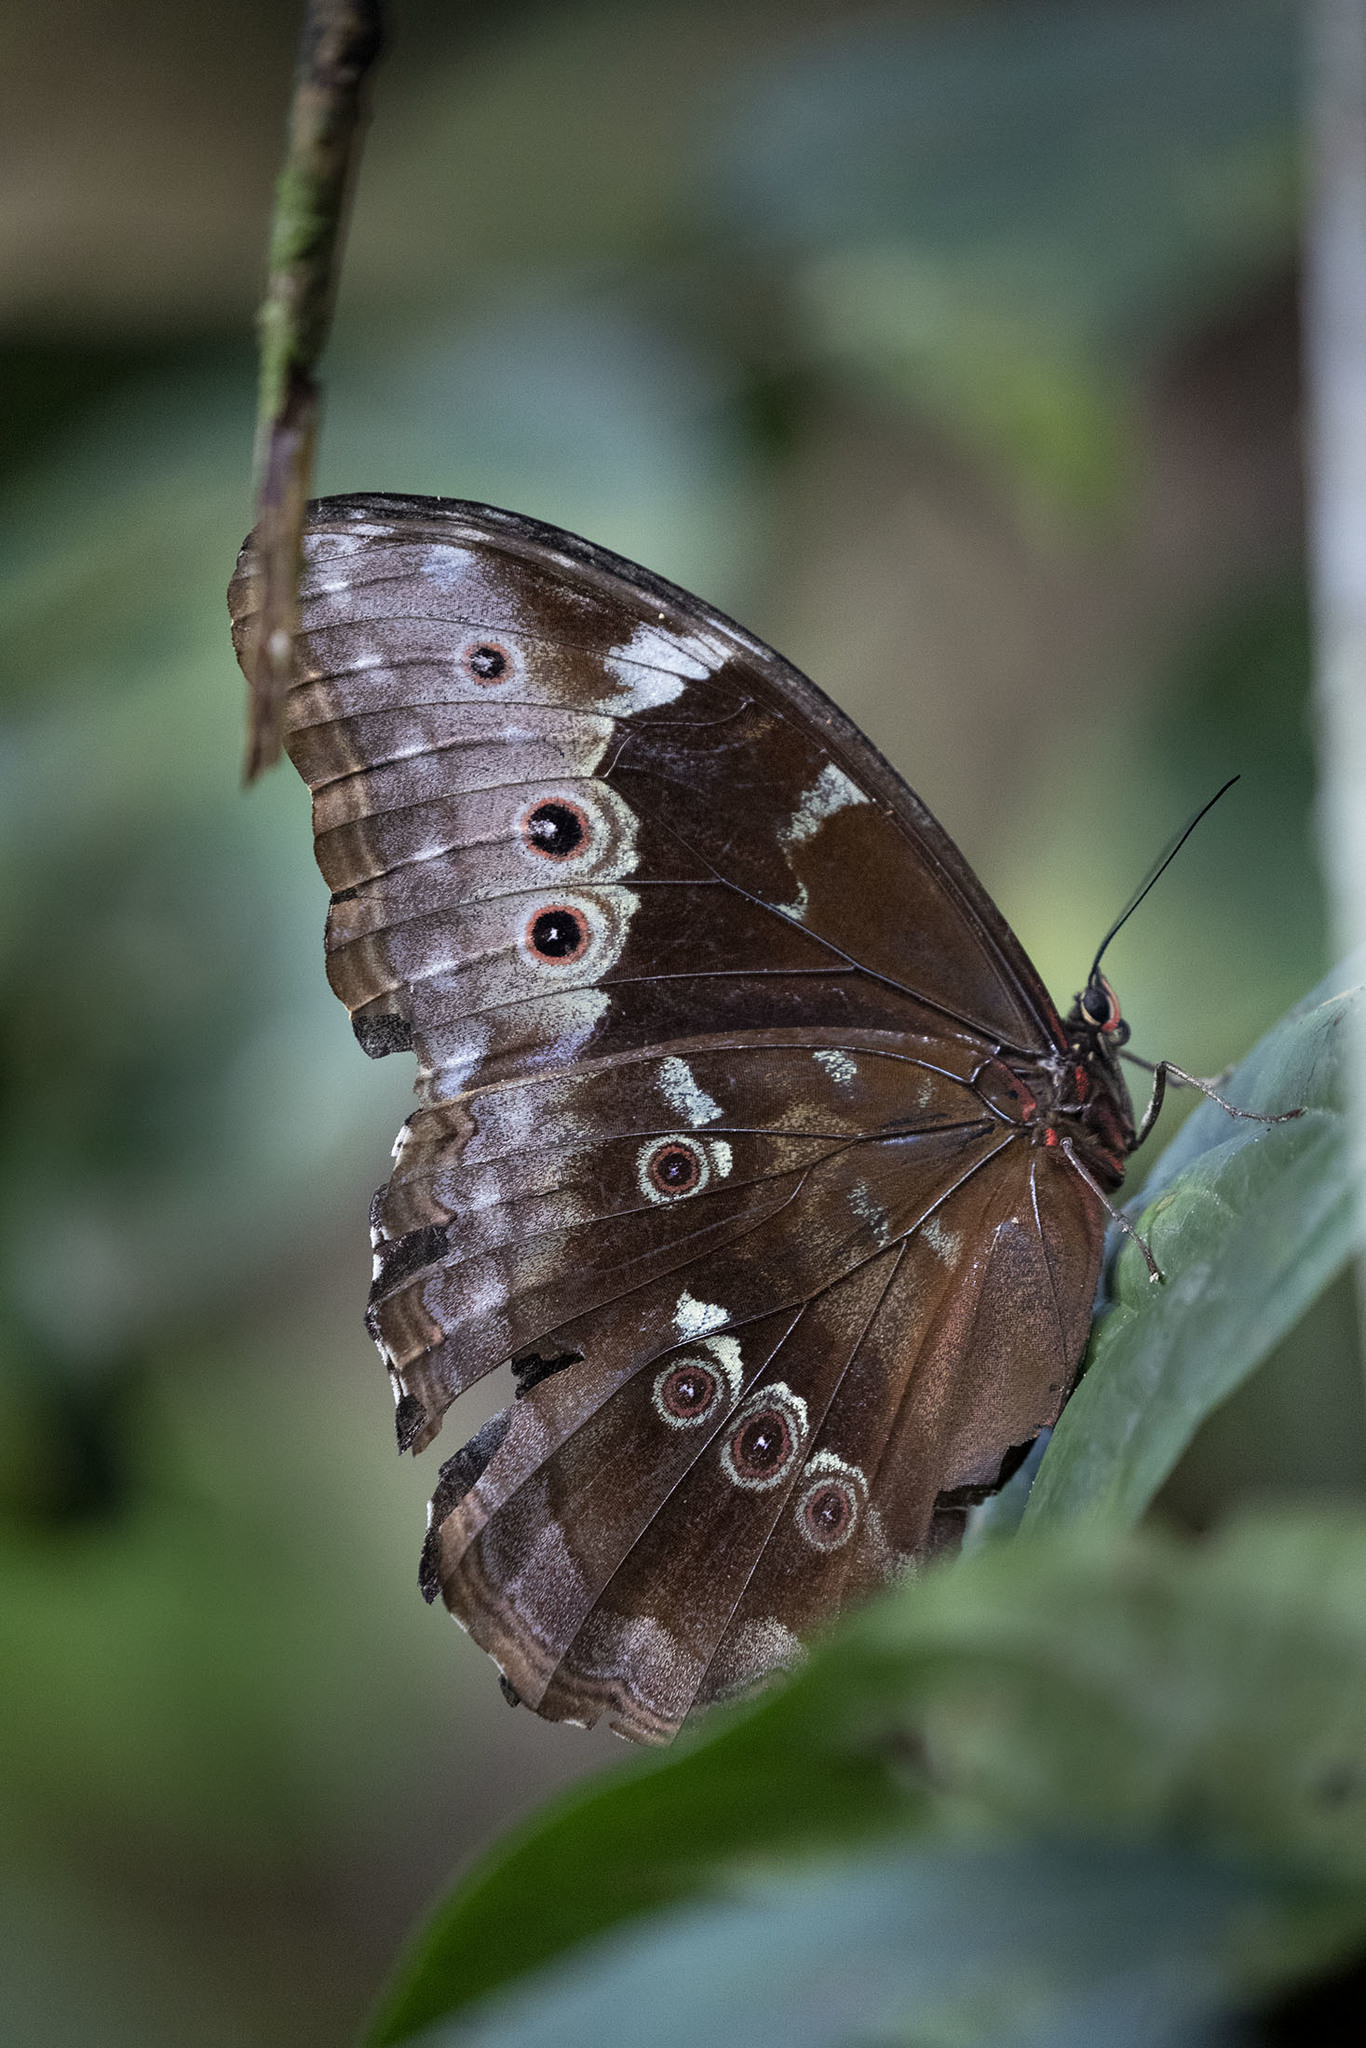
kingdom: Animalia
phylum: Arthropoda
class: Insecta
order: Lepidoptera
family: Nymphalidae
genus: Morpho
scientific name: Morpho menelaus
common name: Menelaus morpho
